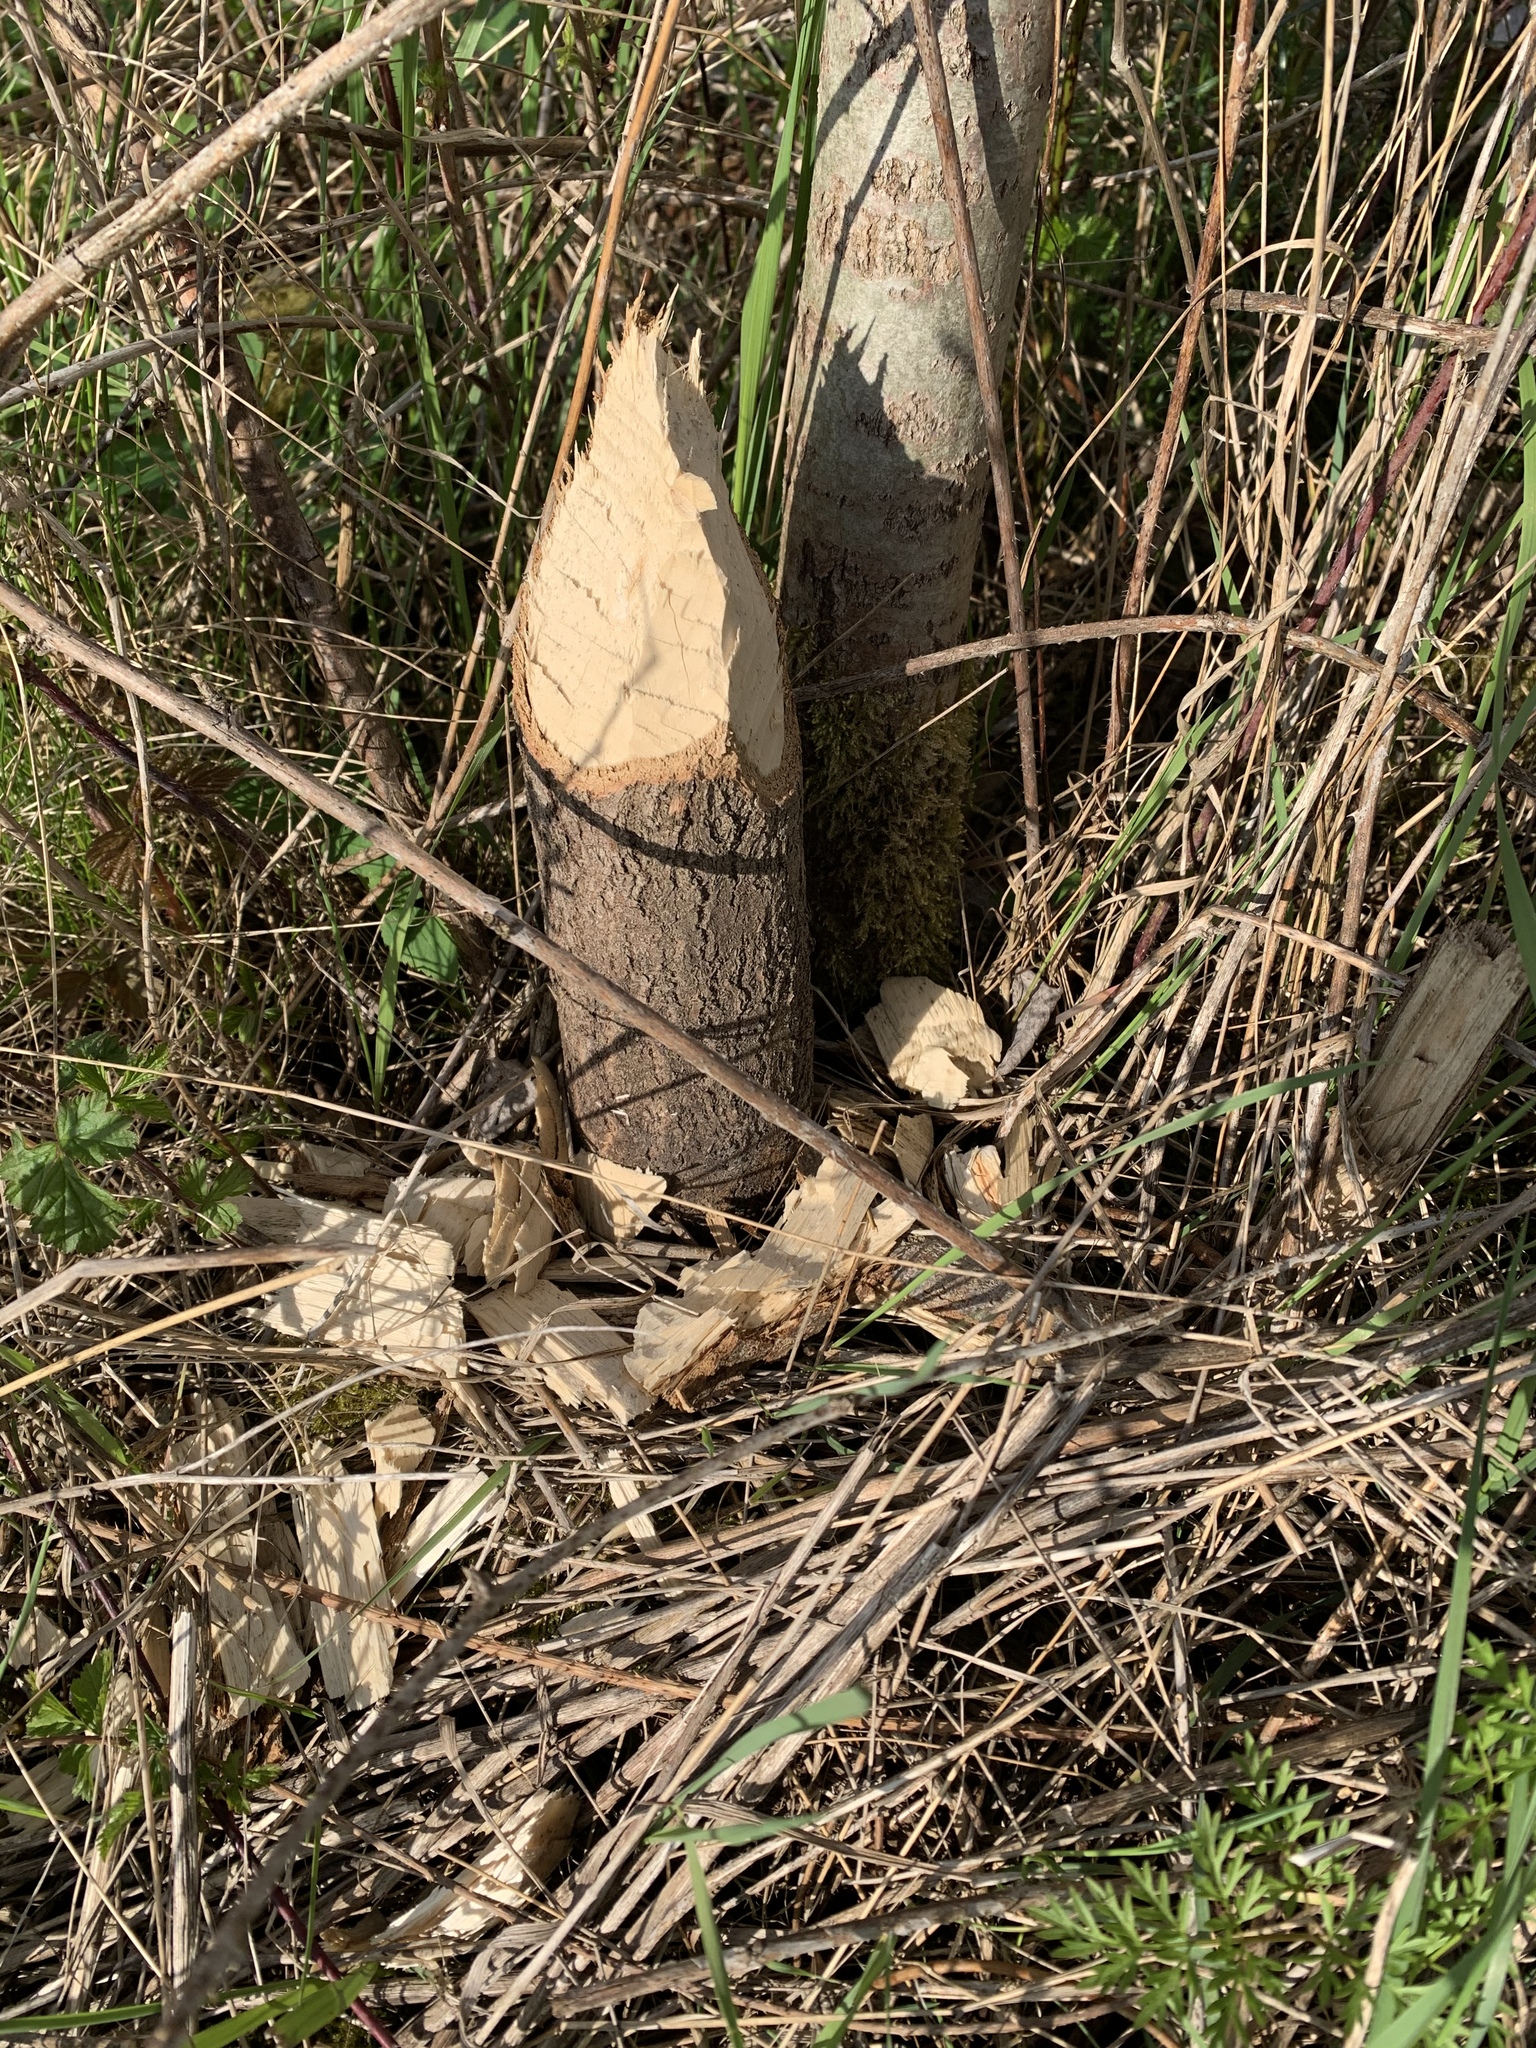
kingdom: Animalia
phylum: Chordata
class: Mammalia
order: Rodentia
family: Castoridae
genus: Castor
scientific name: Castor fiber
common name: Eurasian beaver
